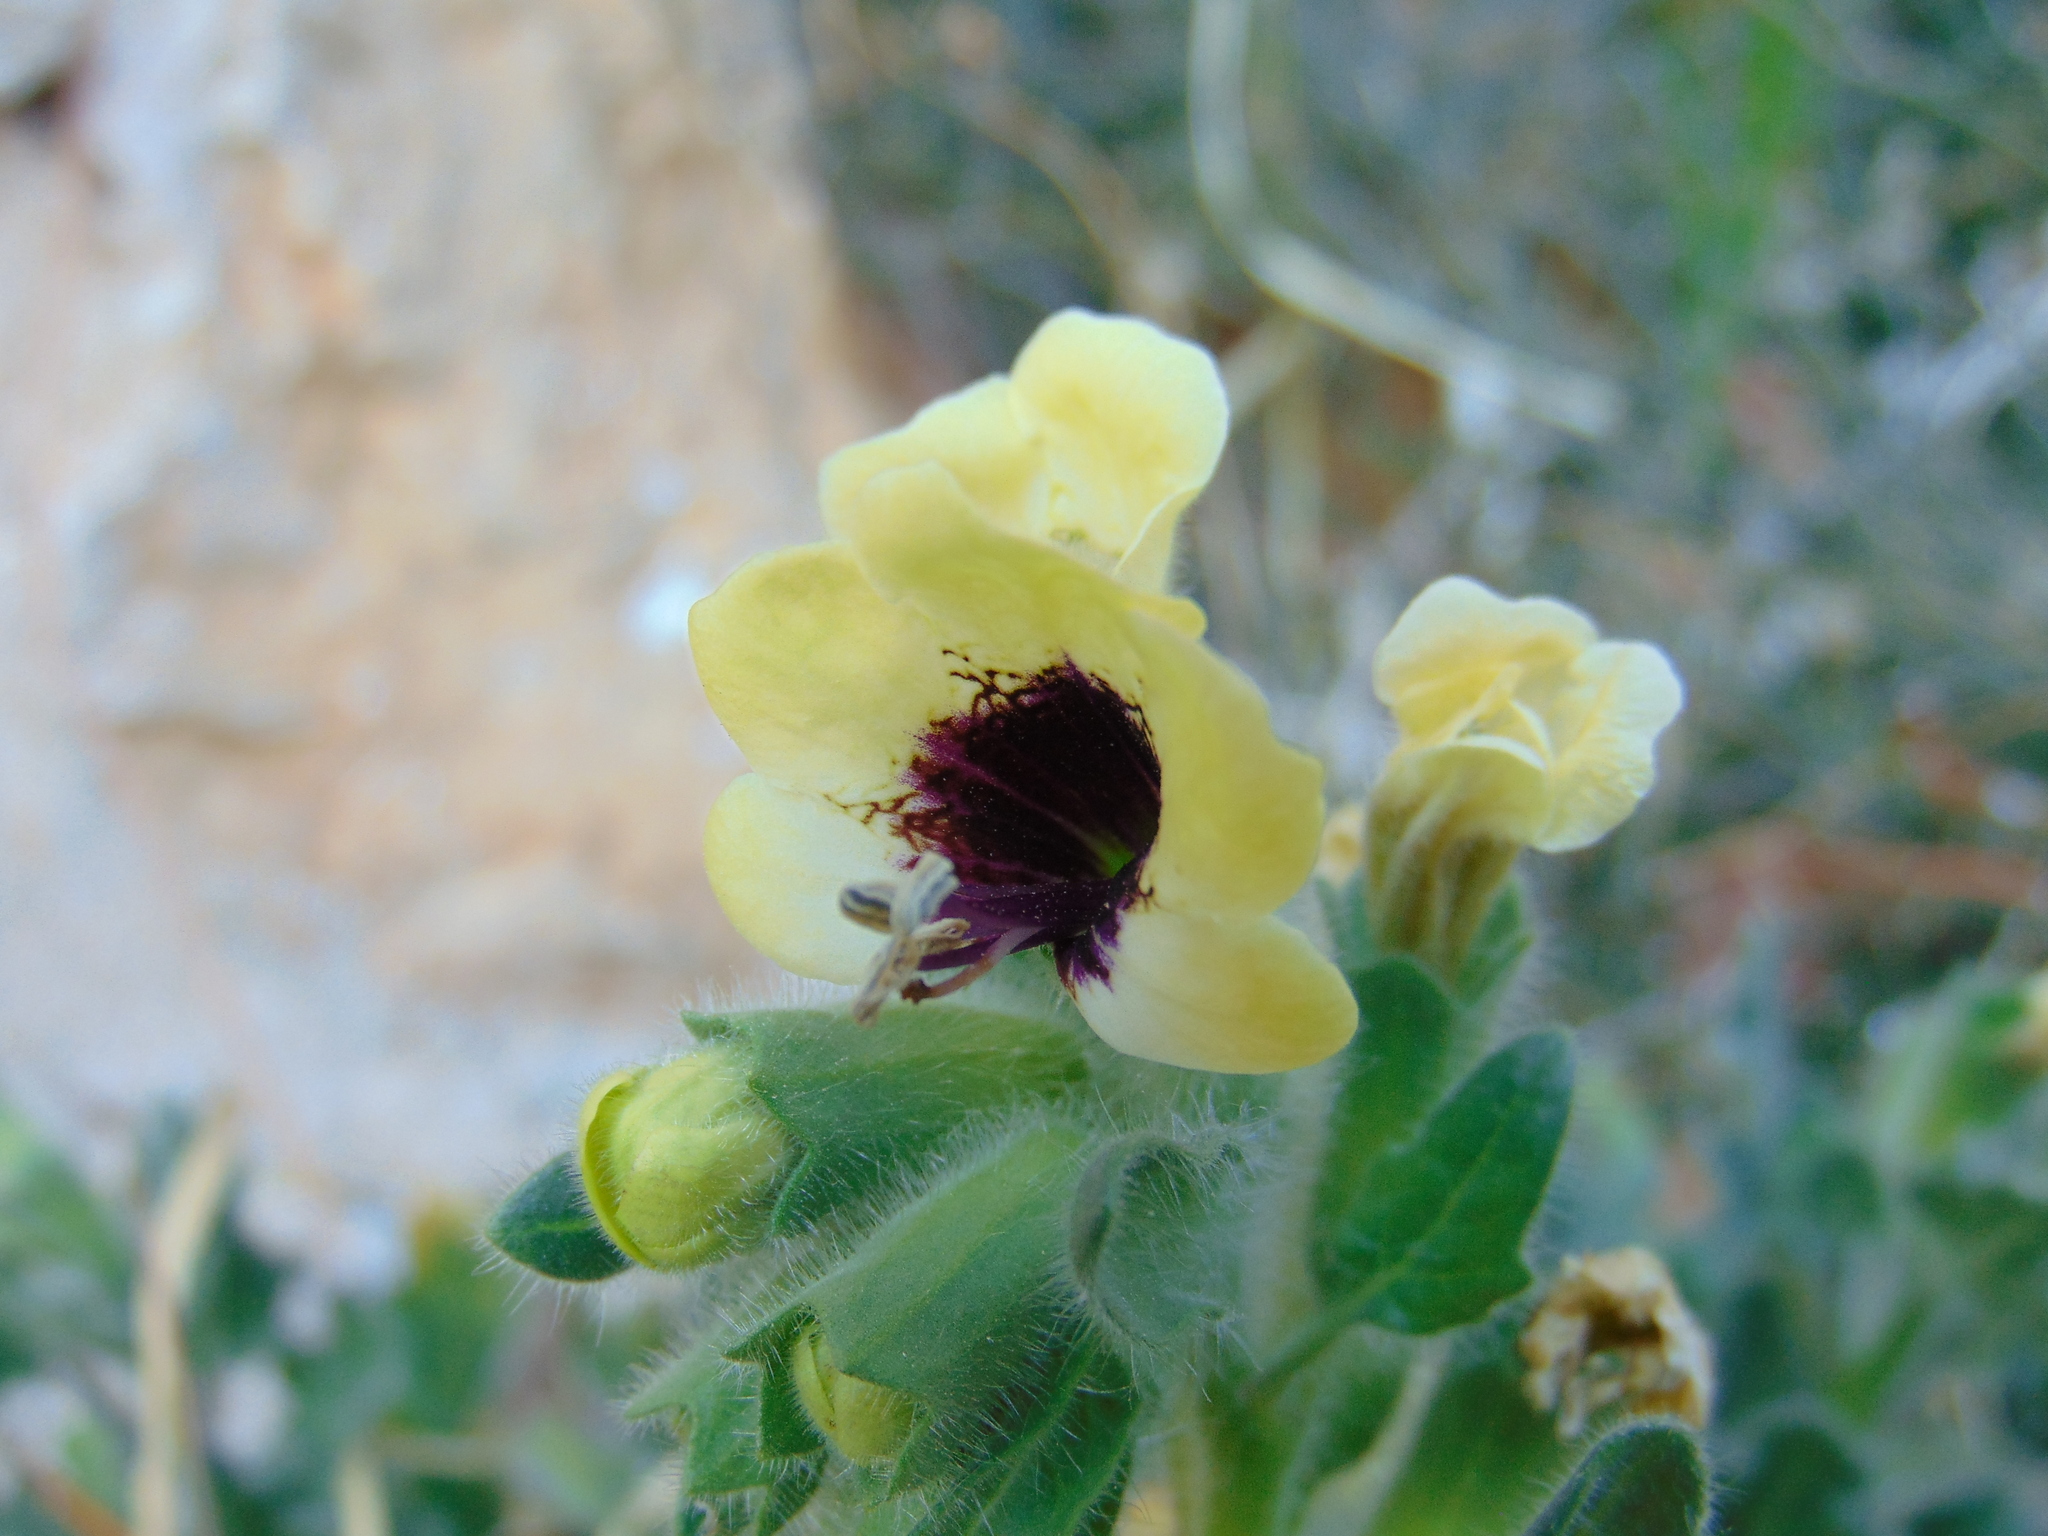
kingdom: Plantae
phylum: Tracheophyta
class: Magnoliopsida
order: Solanales
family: Solanaceae
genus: Hyoscyamus
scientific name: Hyoscyamus albus
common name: White henbane
